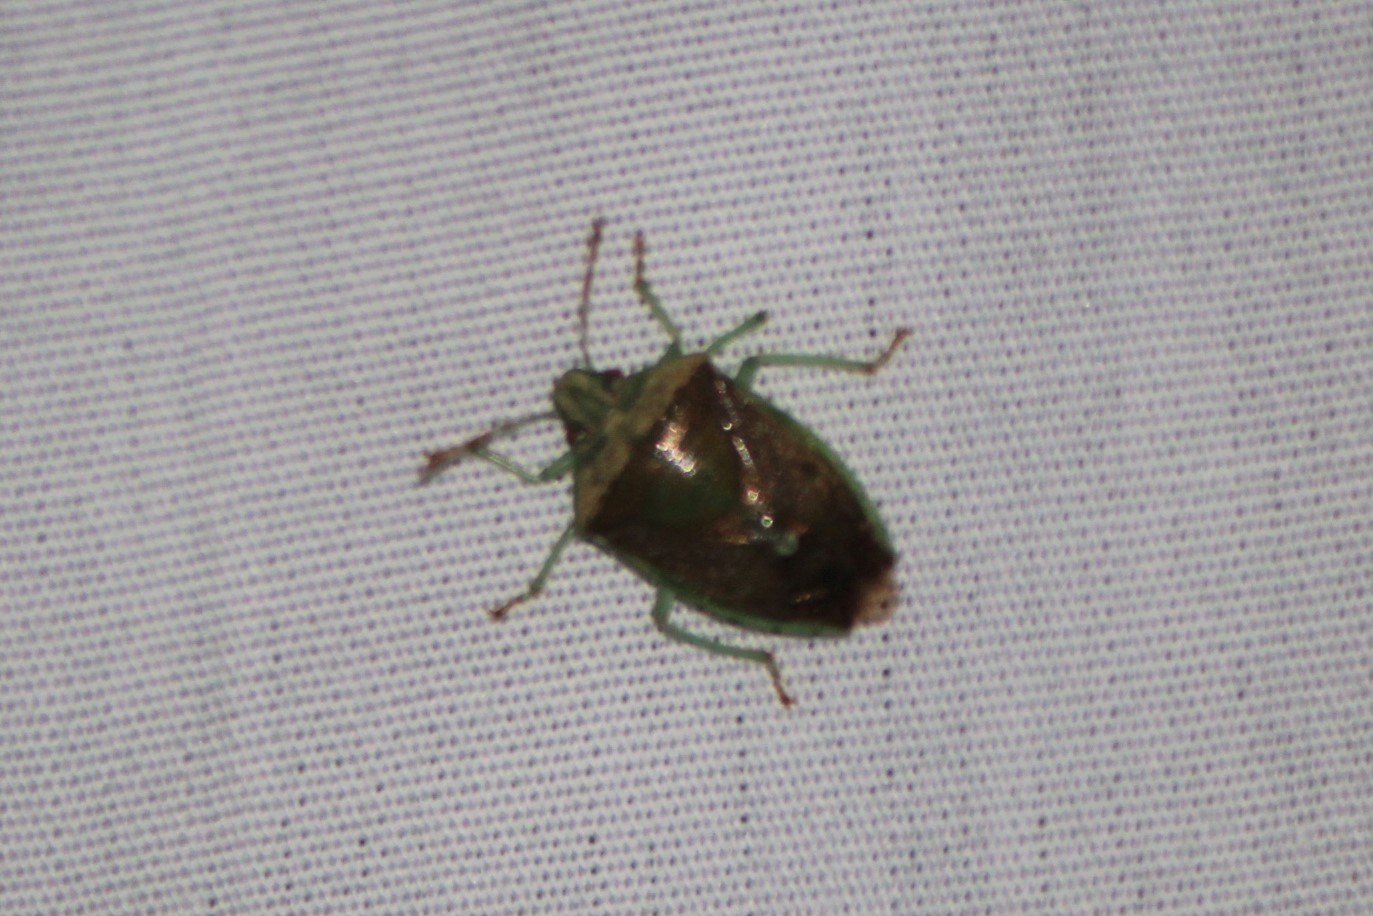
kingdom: Animalia
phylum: Arthropoda
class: Insecta
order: Hemiptera
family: Pentatomidae
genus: Banasa
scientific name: Banasa dimidiata
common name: Green burgundy stink bug
